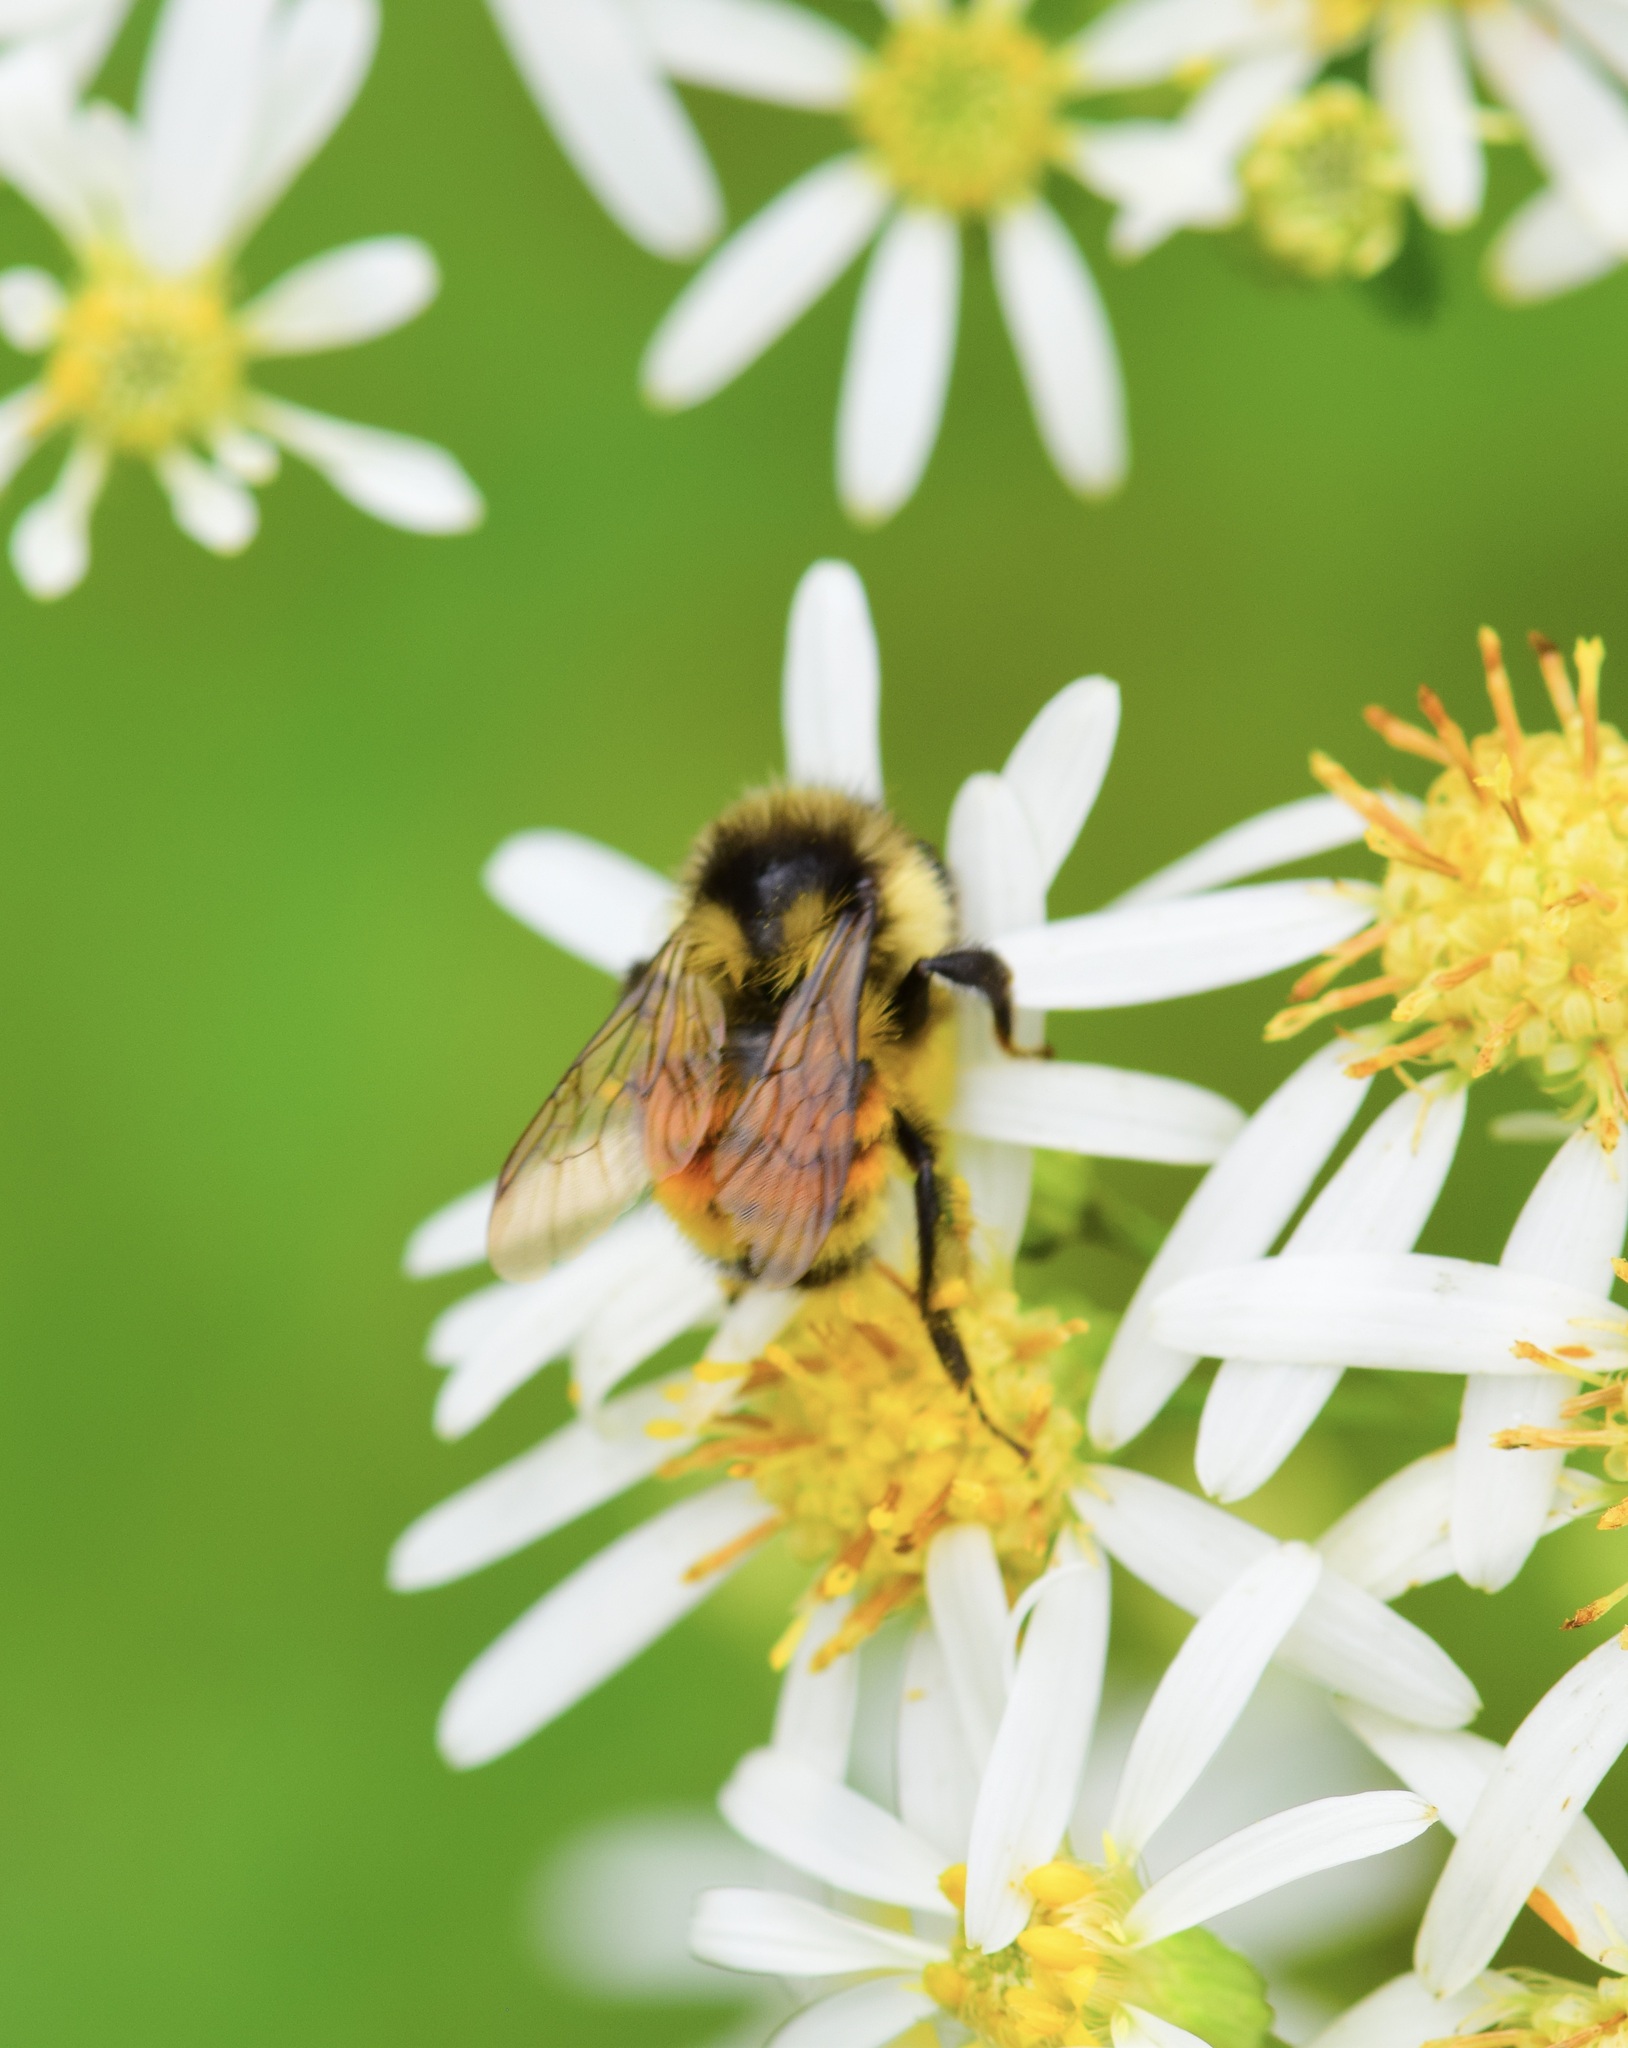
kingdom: Animalia
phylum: Arthropoda
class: Insecta
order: Hymenoptera
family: Apidae
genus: Bombus
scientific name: Bombus ternarius
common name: Tri-colored bumble bee
